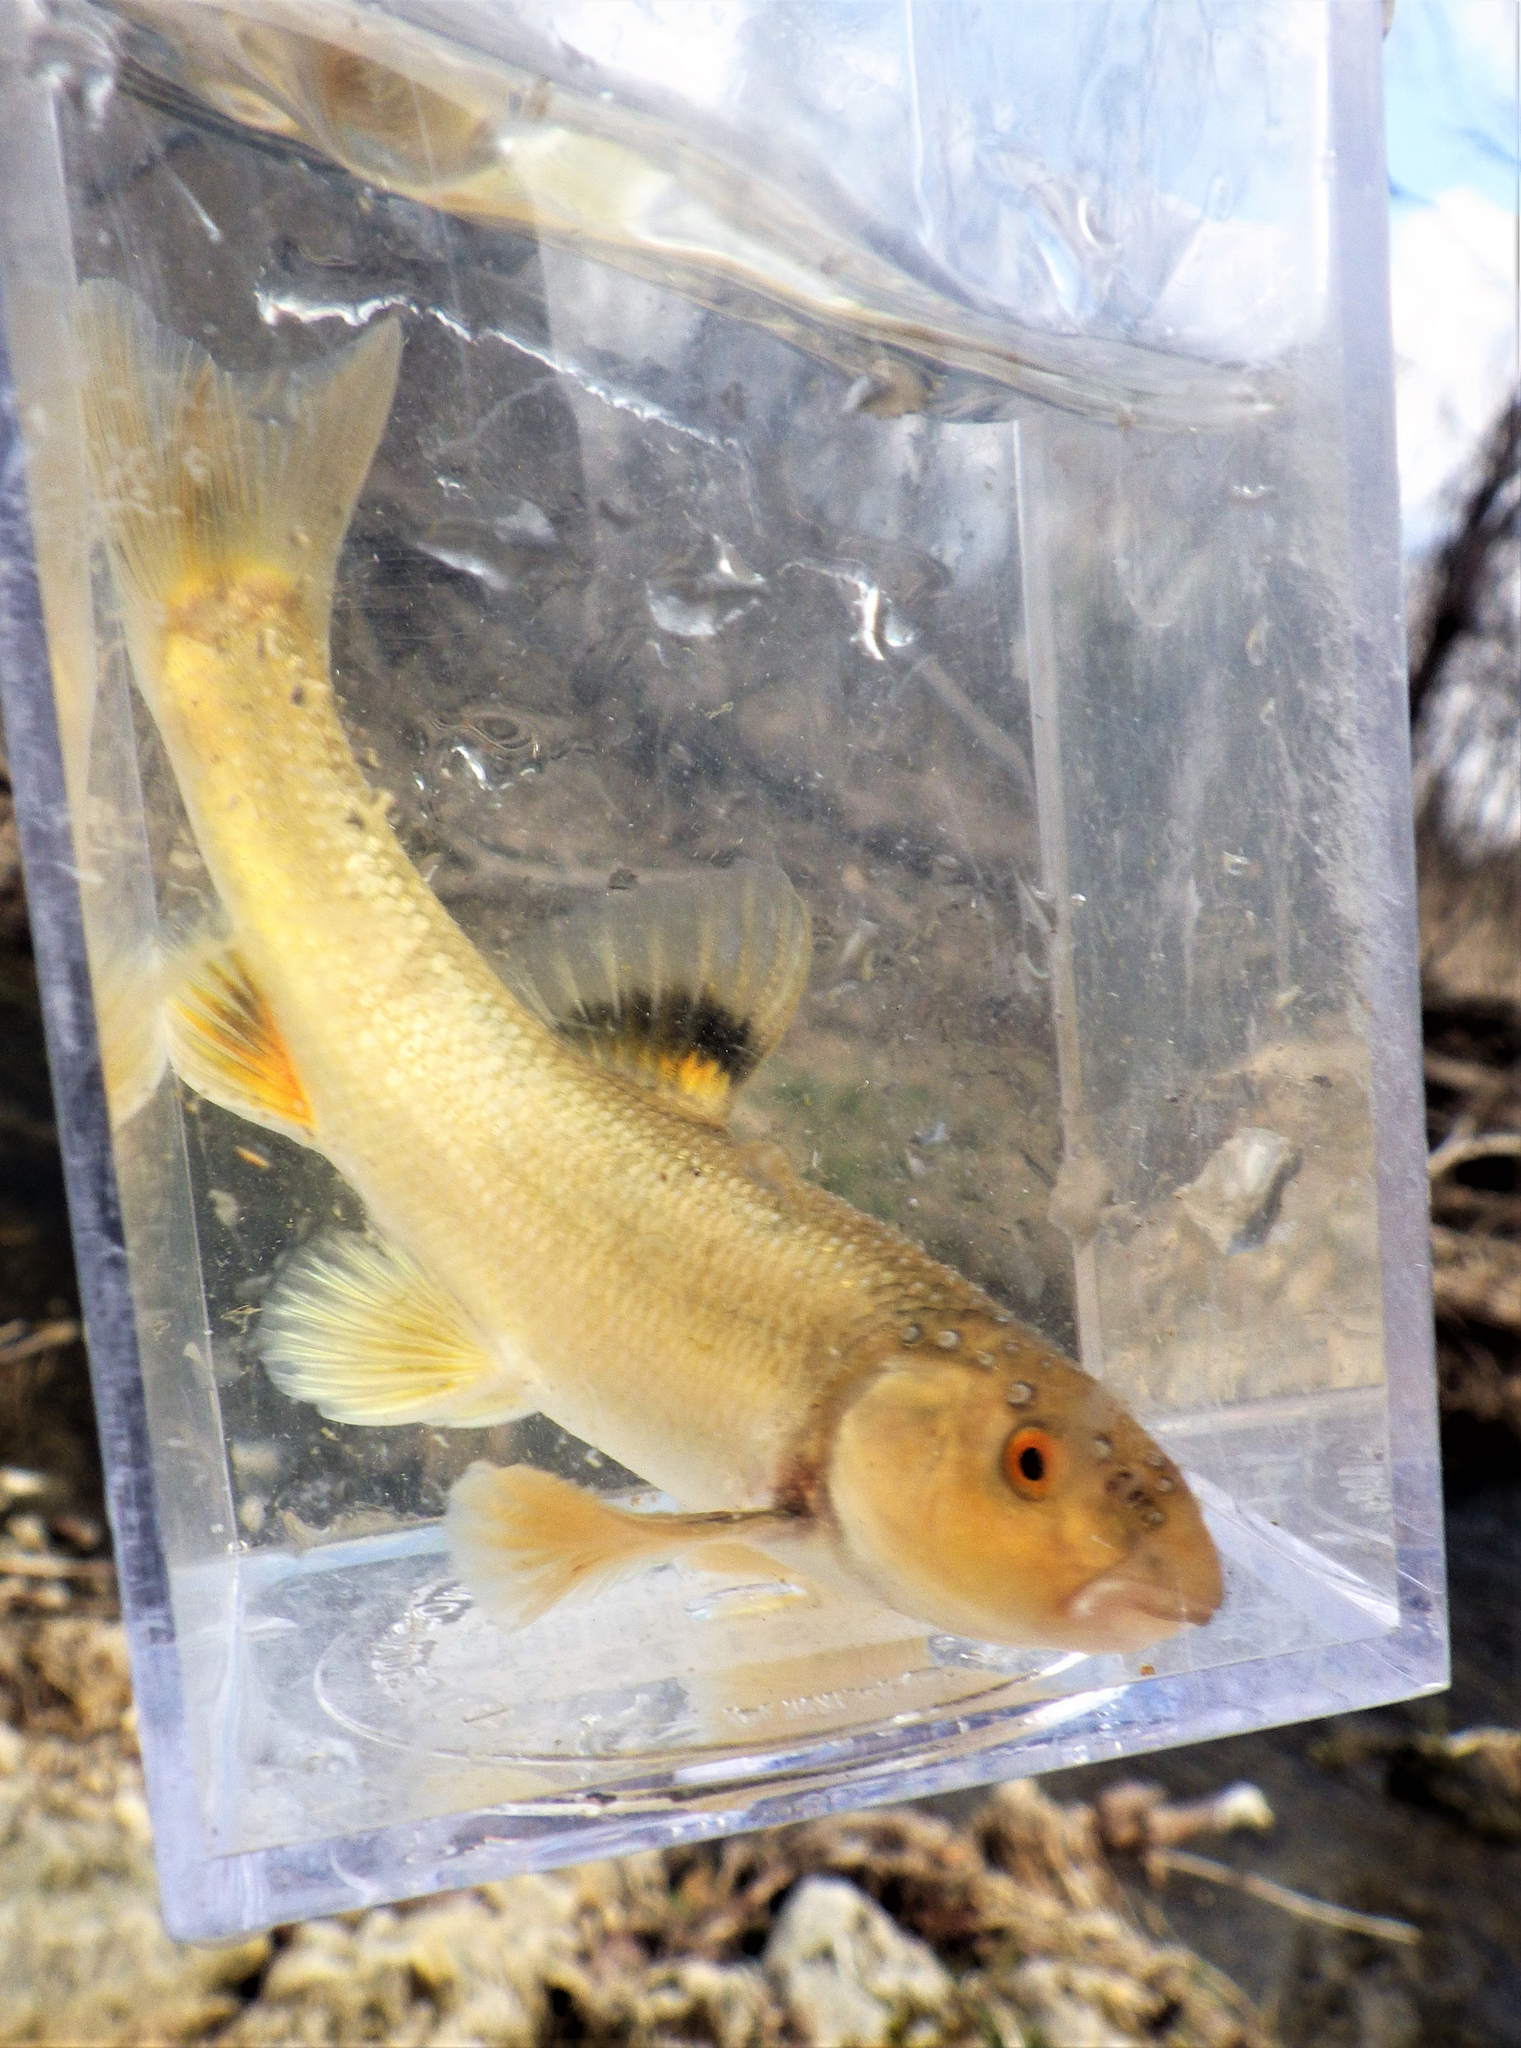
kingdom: Animalia
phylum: Chordata
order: Cypriniformes
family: Cyprinidae
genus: Campostoma
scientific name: Campostoma anomalum
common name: Central stoneroller
